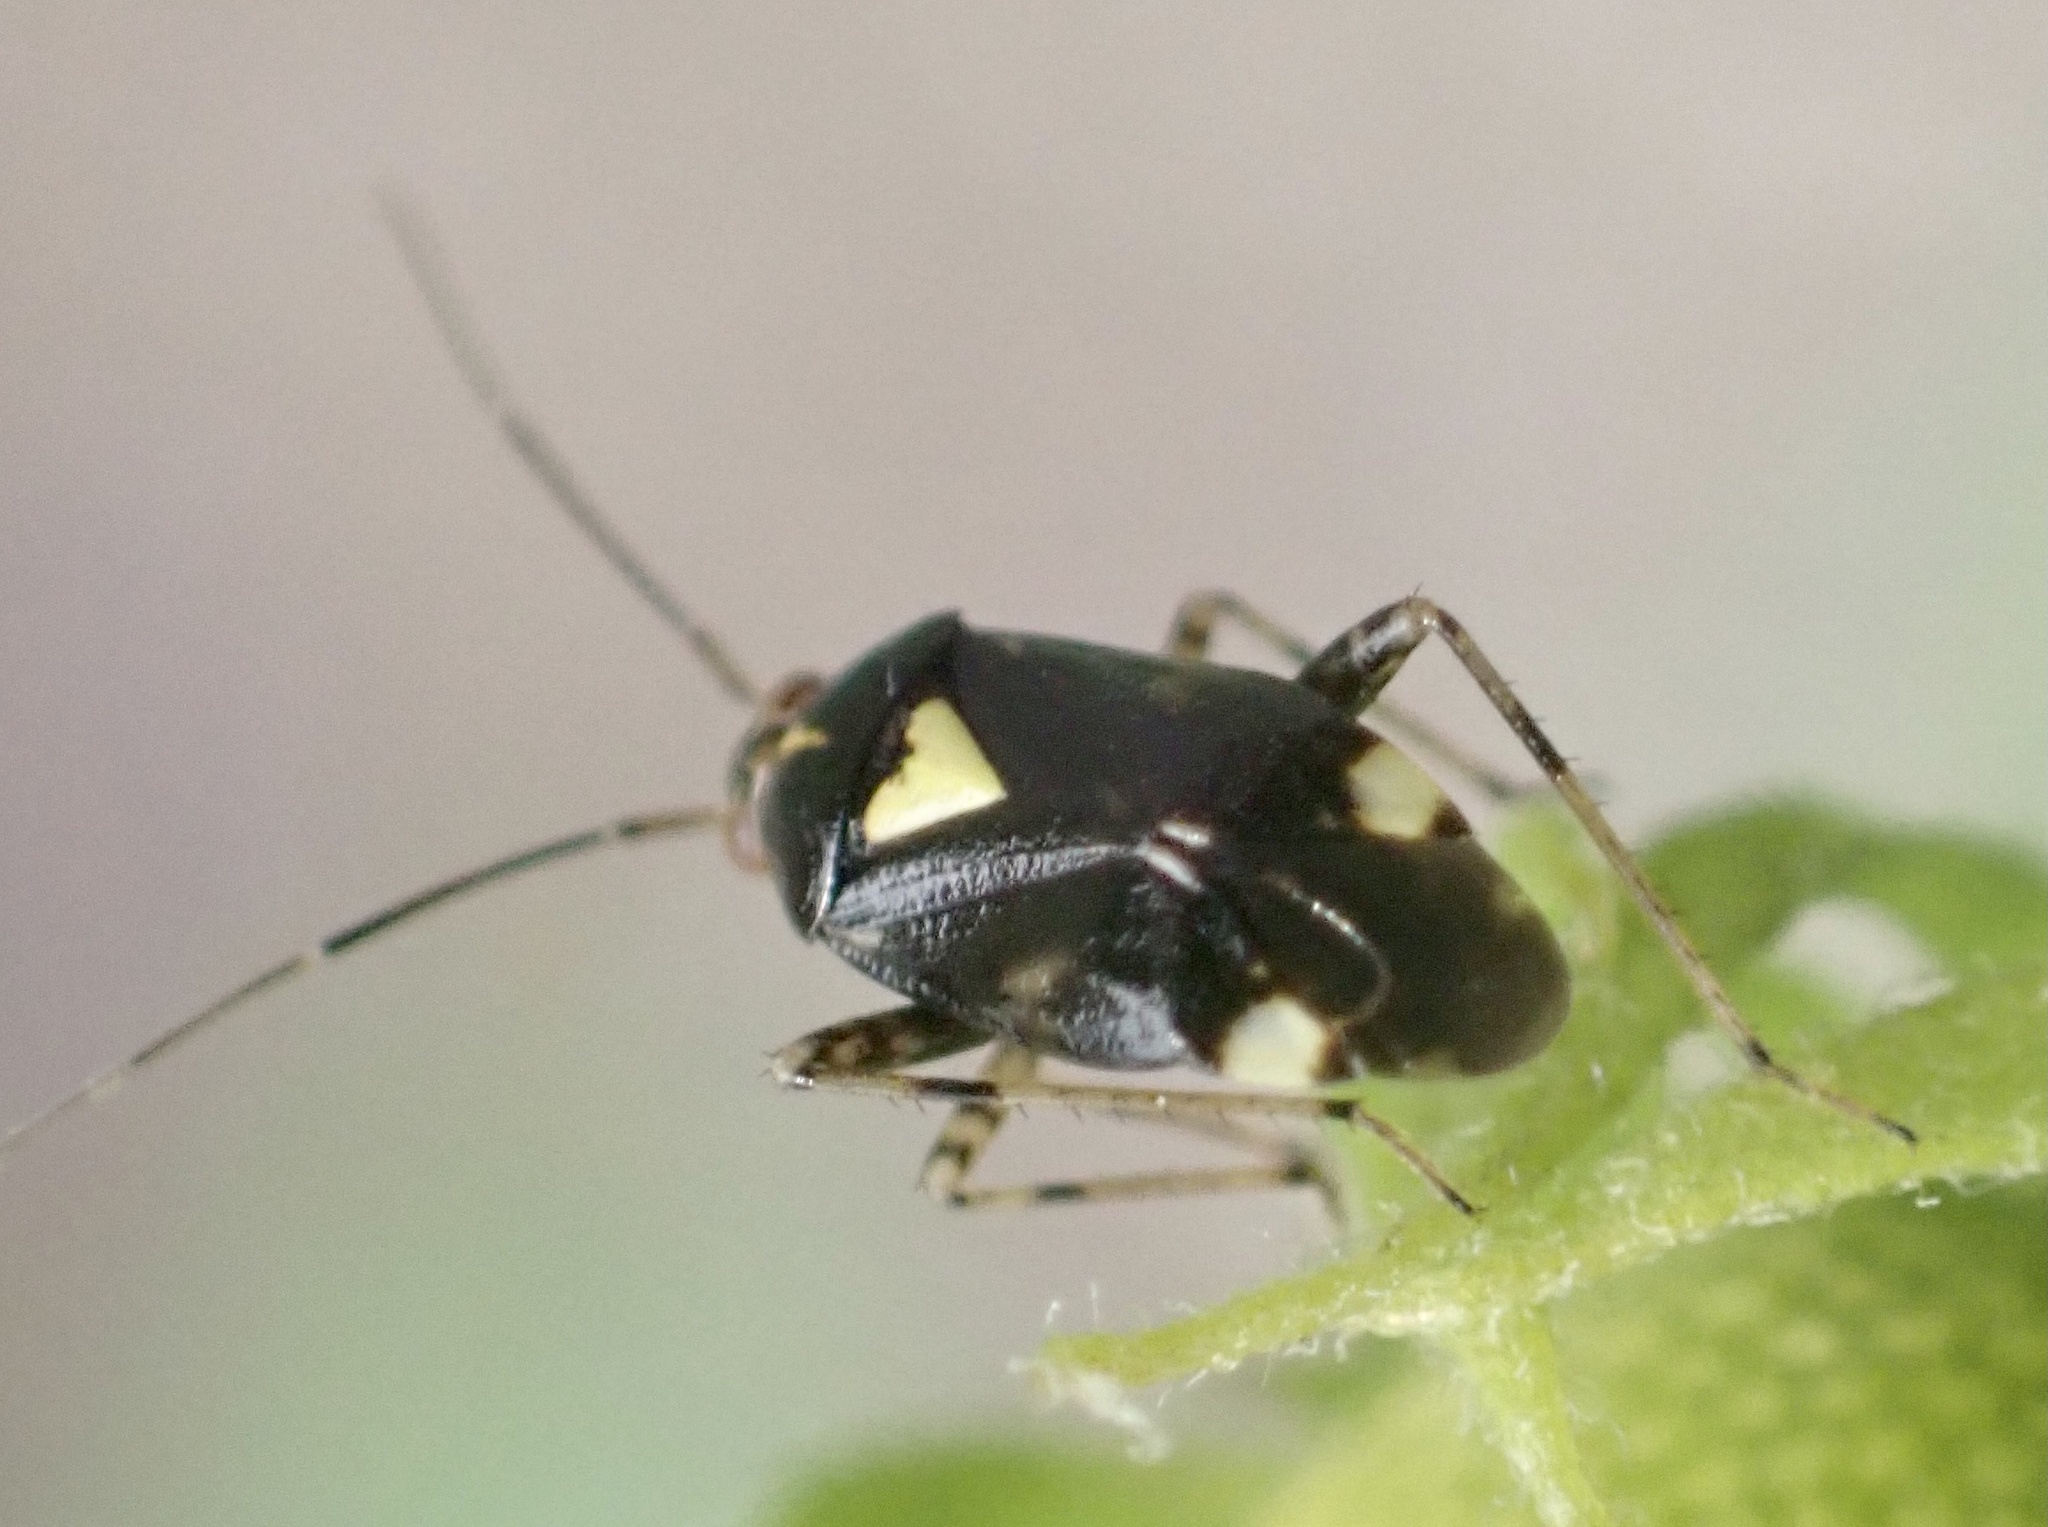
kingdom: Animalia
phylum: Arthropoda
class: Insecta
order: Hemiptera
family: Miridae
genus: Liocoris
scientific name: Liocoris tripustulatus
